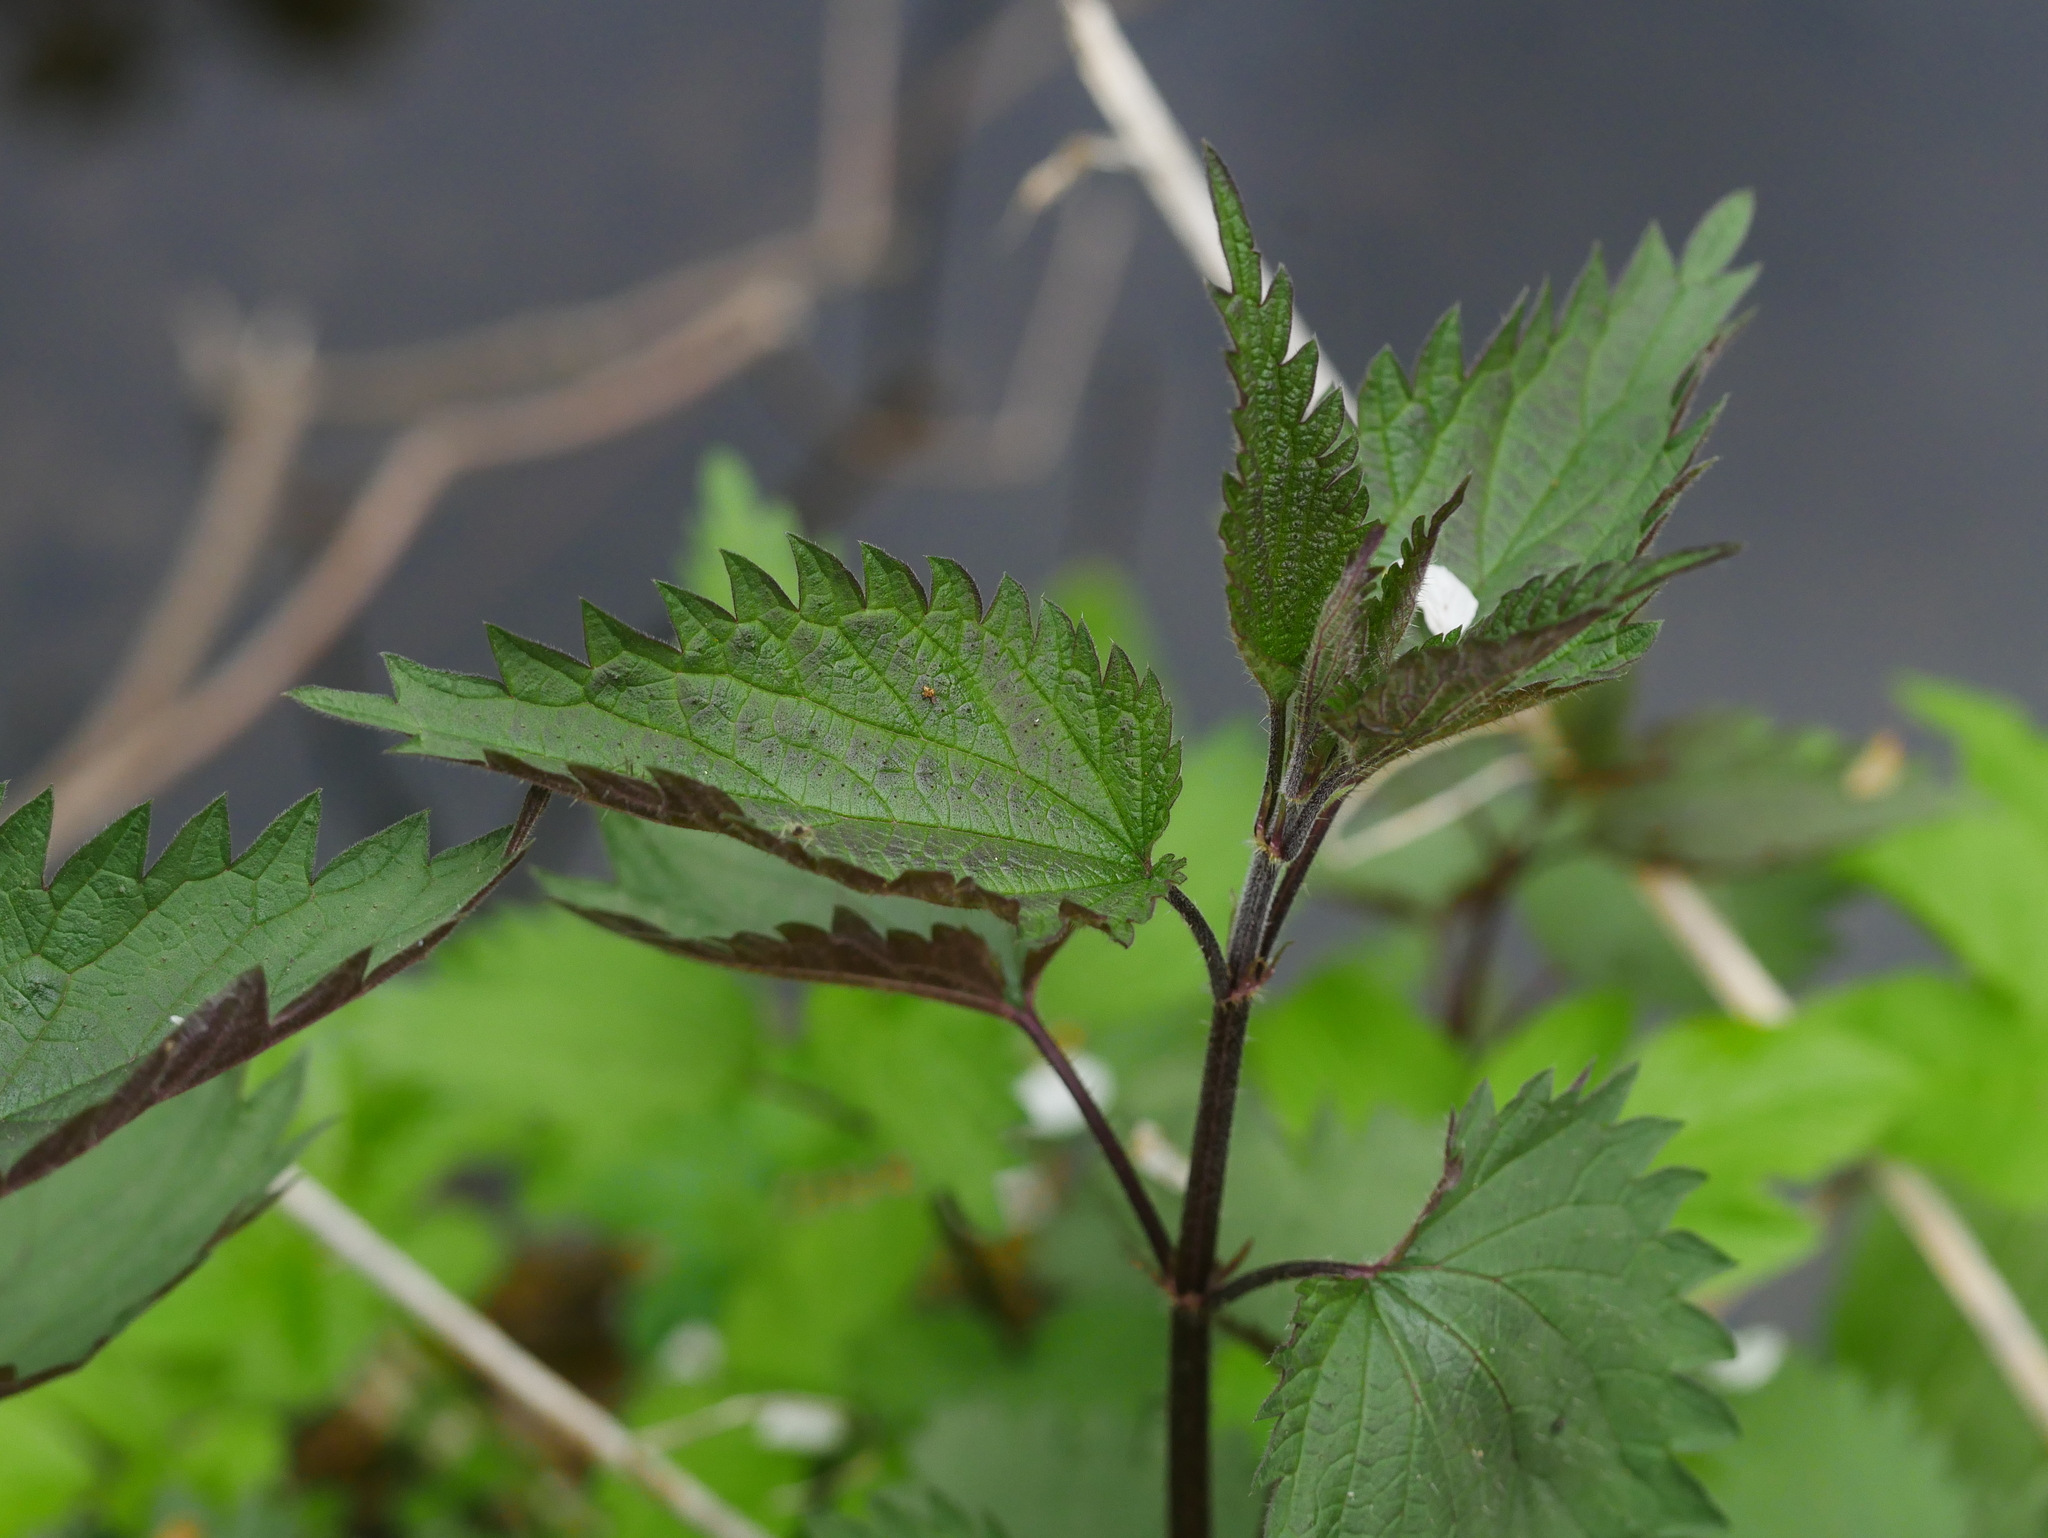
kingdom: Plantae
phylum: Tracheophyta
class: Magnoliopsida
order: Rosales
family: Urticaceae
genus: Urtica
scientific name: Urtica dioica
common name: Common nettle
